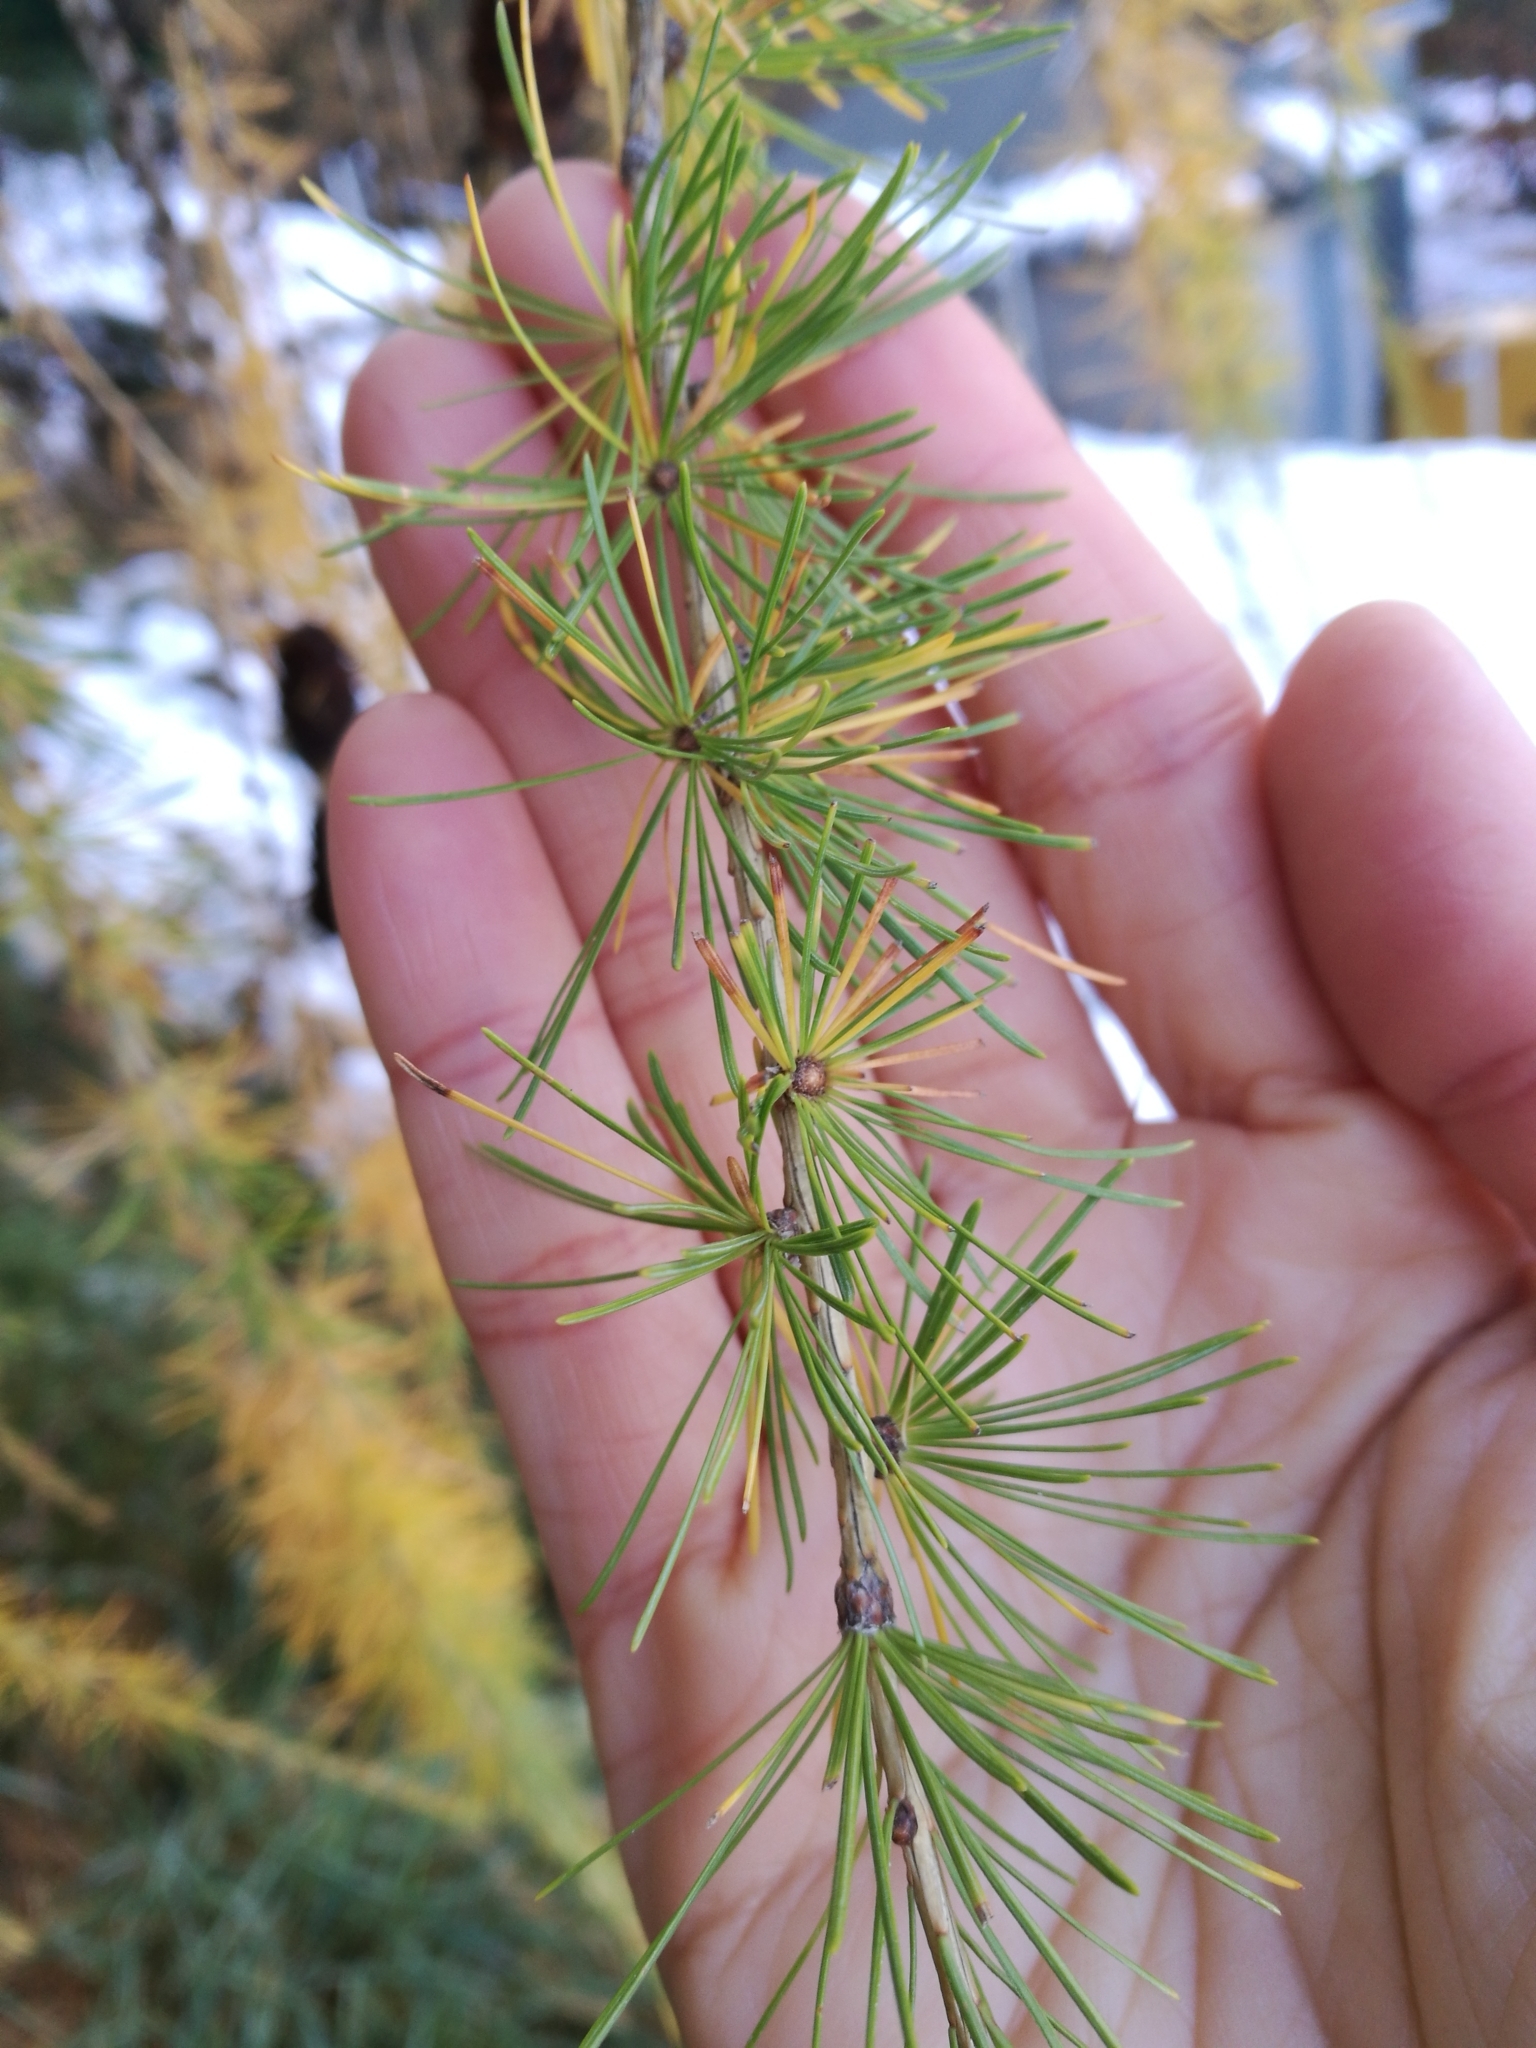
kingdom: Plantae
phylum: Tracheophyta
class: Pinopsida
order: Pinales
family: Pinaceae
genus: Larix
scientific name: Larix decidua
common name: European larch
